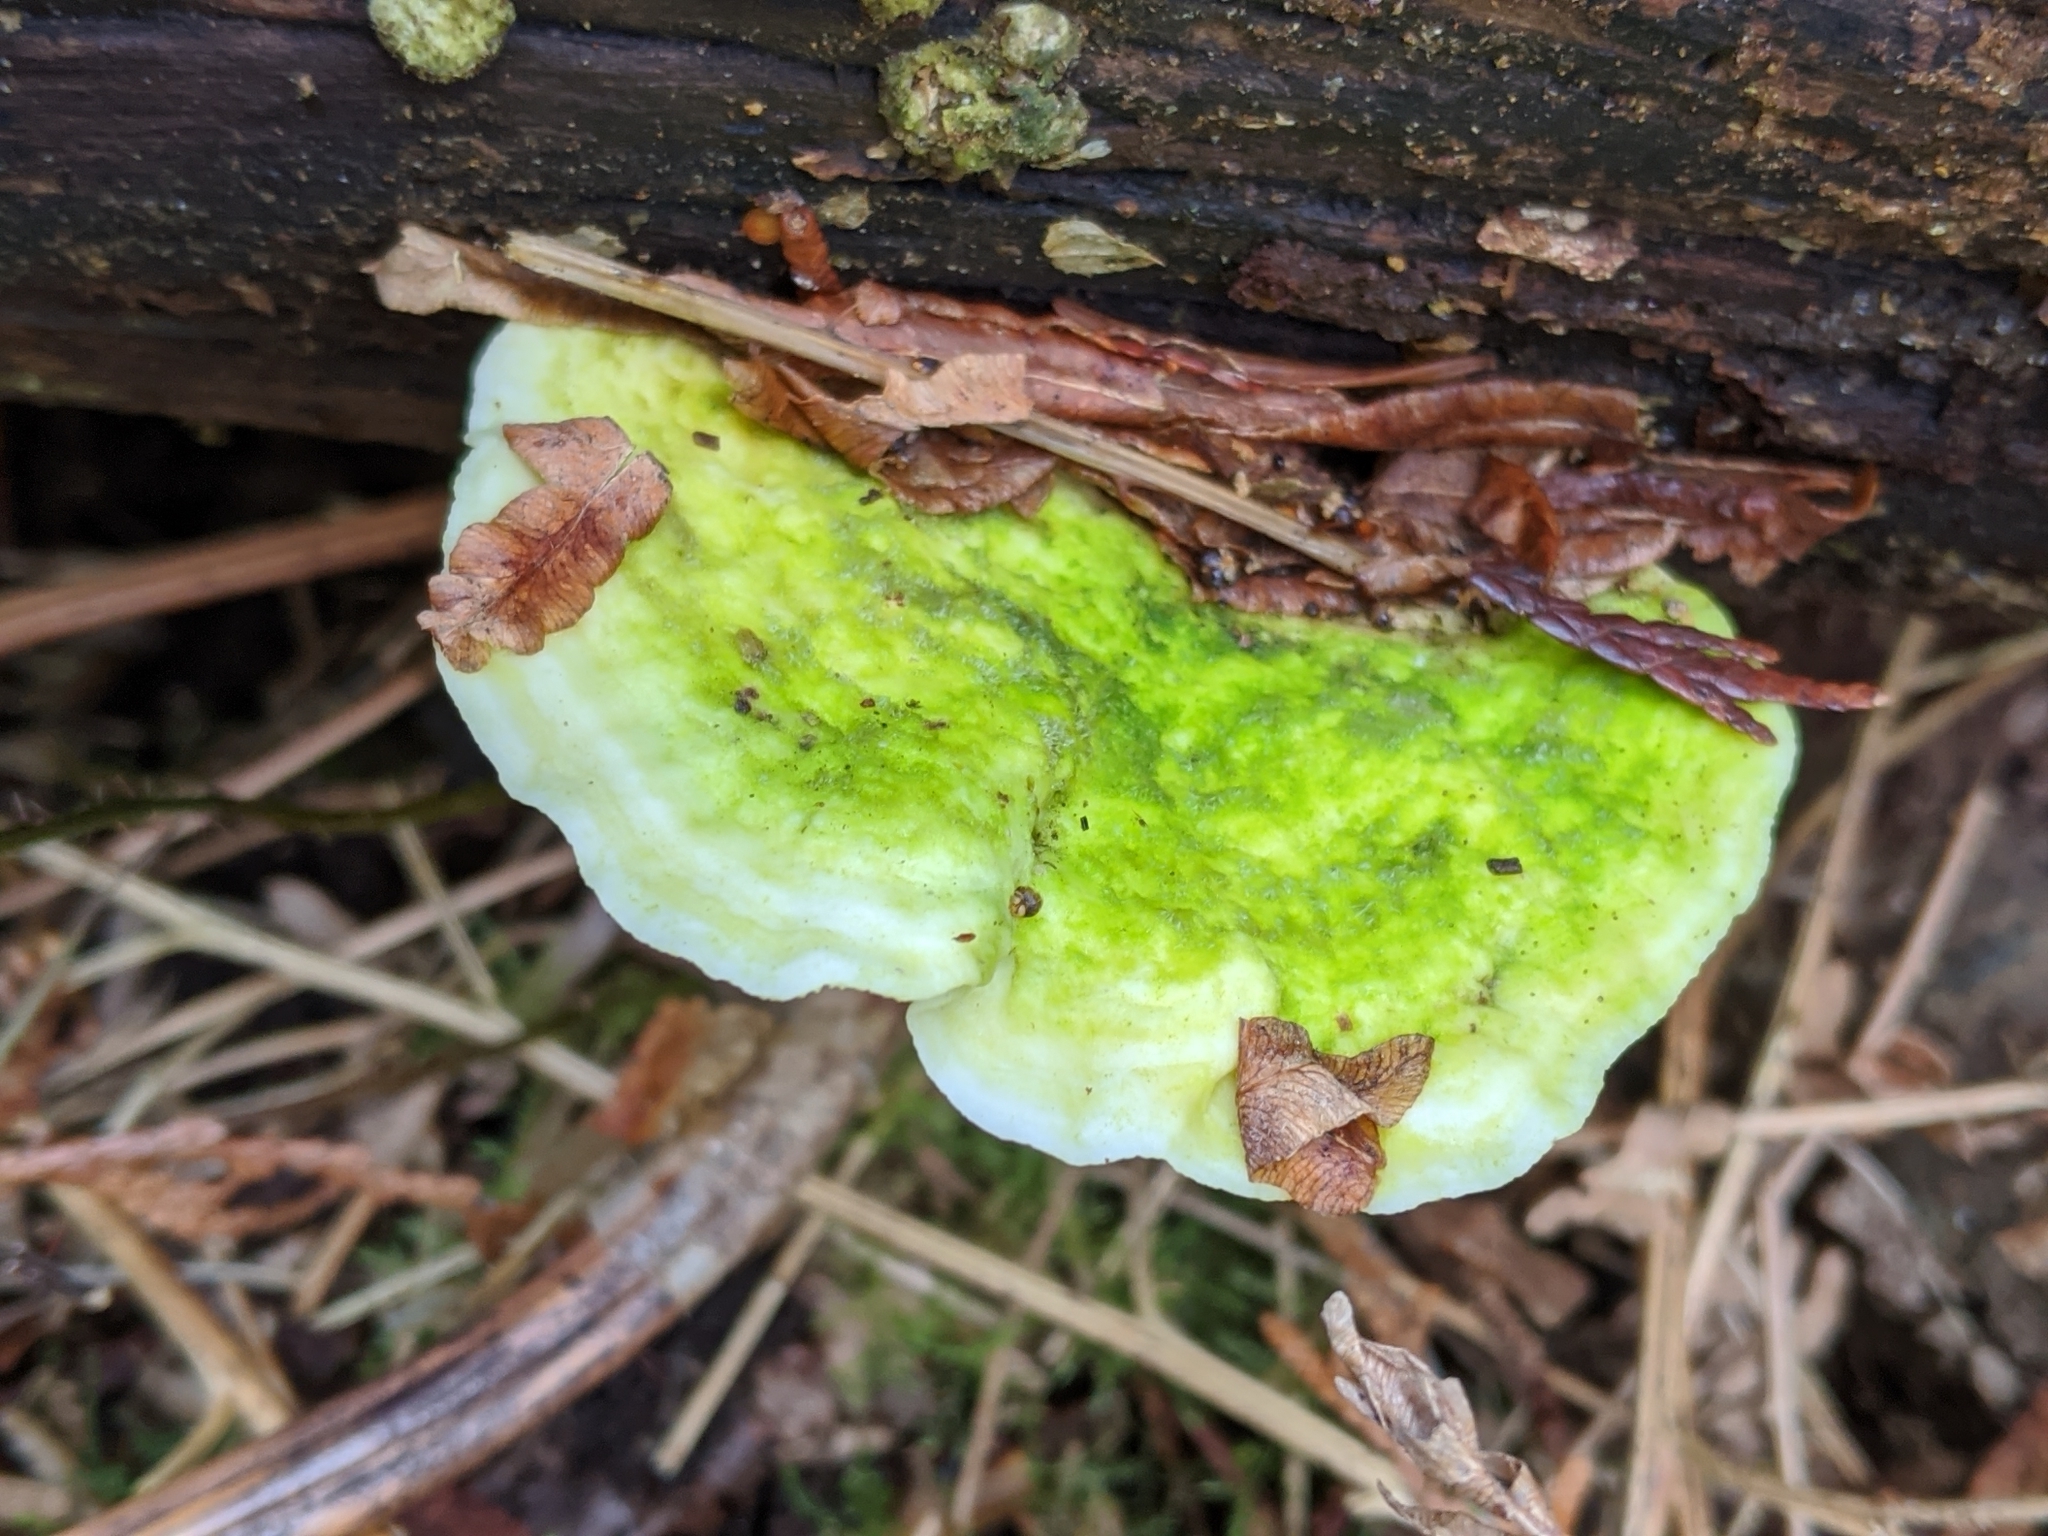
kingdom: Fungi
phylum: Basidiomycota
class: Agaricomycetes
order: Polyporales
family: Polyporaceae
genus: Trametes
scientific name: Trametes gibbosa
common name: Lumpy bracket
